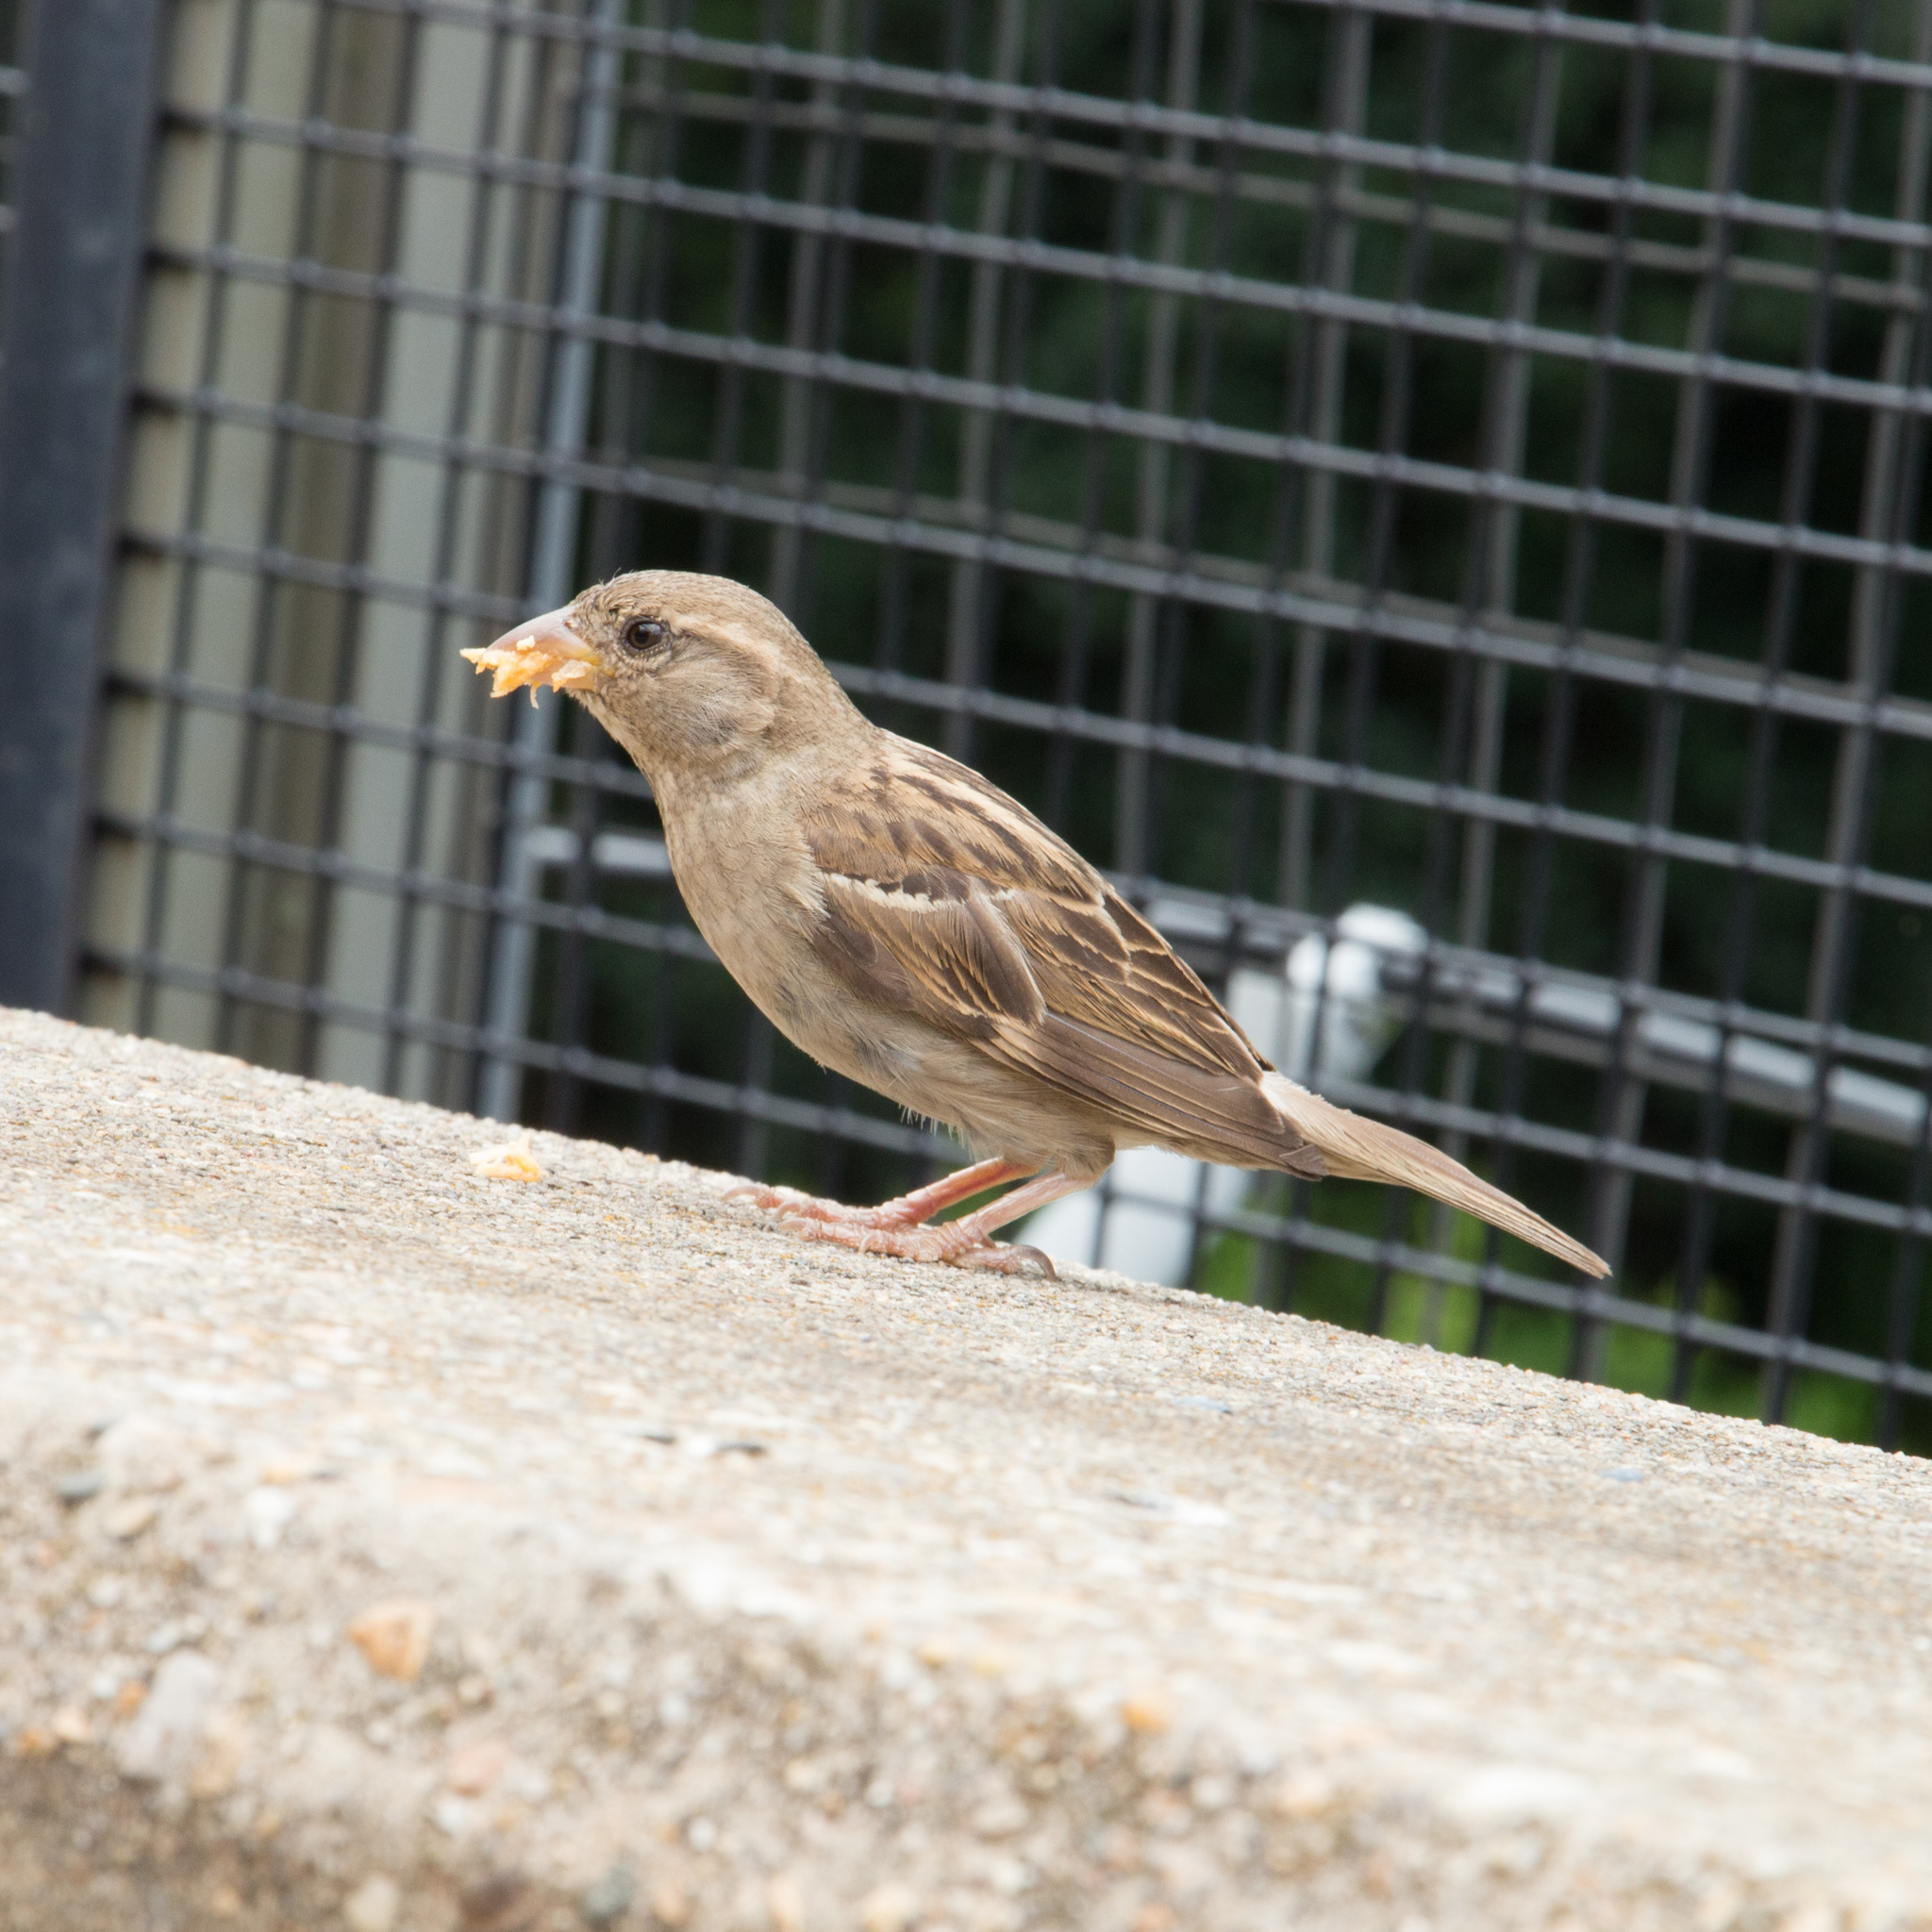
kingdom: Animalia
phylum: Chordata
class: Aves
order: Passeriformes
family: Passeridae
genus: Passer
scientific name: Passer domesticus
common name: House sparrow
